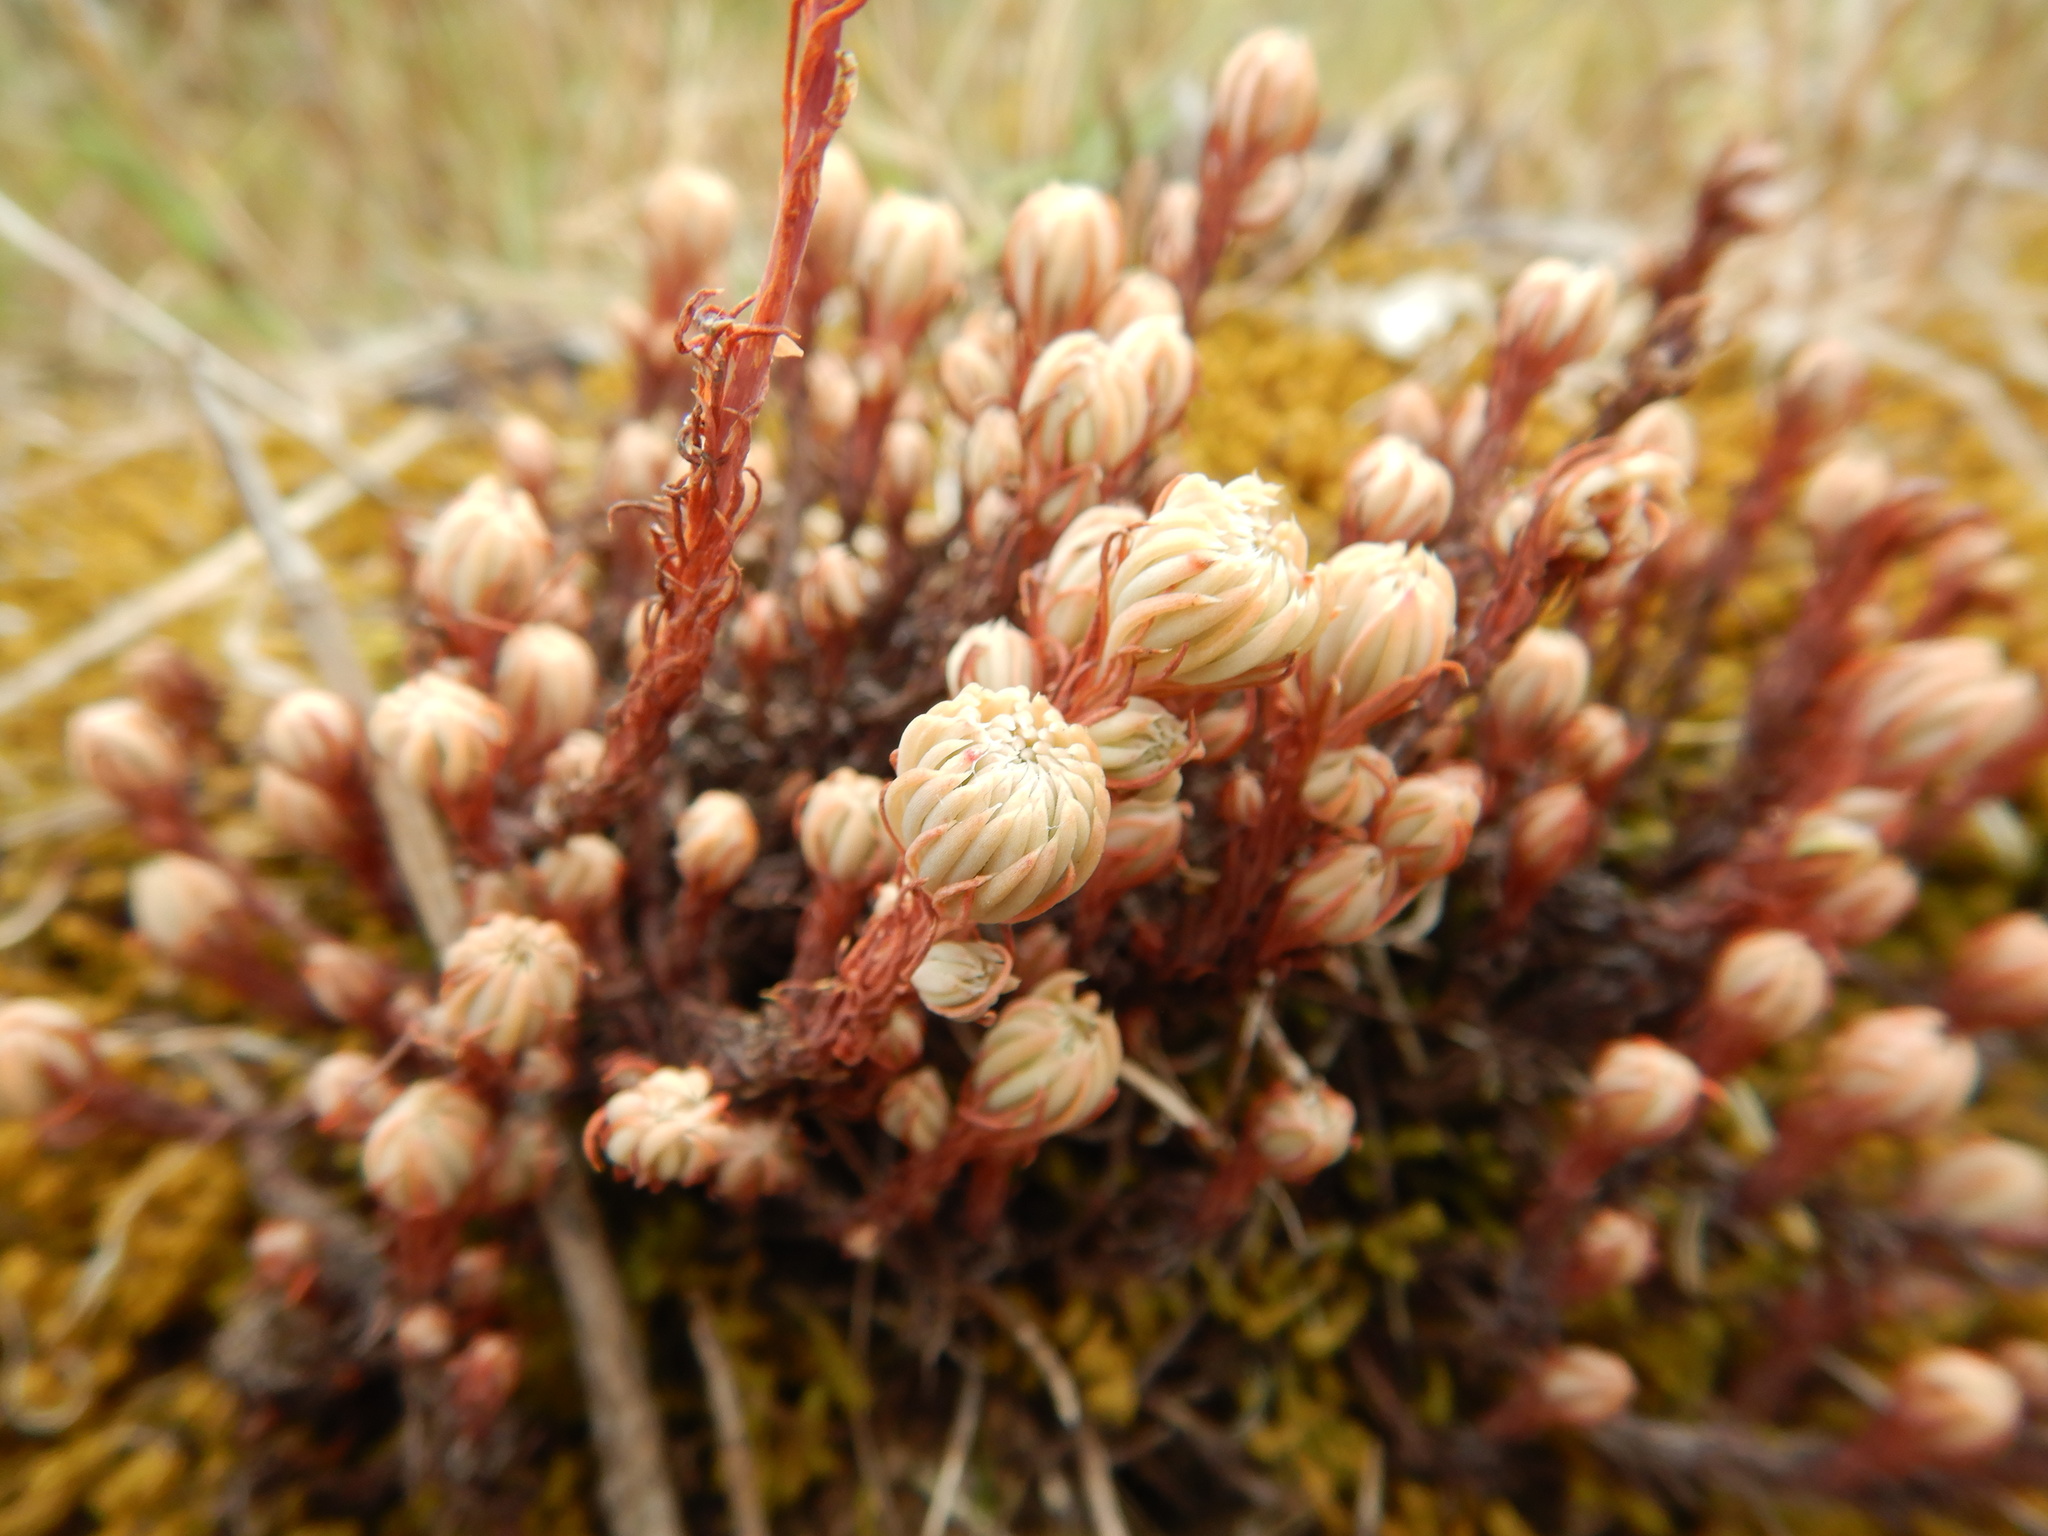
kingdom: Plantae
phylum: Tracheophyta
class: Magnoliopsida
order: Saxifragales
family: Crassulaceae
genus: Petrosedum
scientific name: Petrosedum forsterianum
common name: Forster's stonecrop
